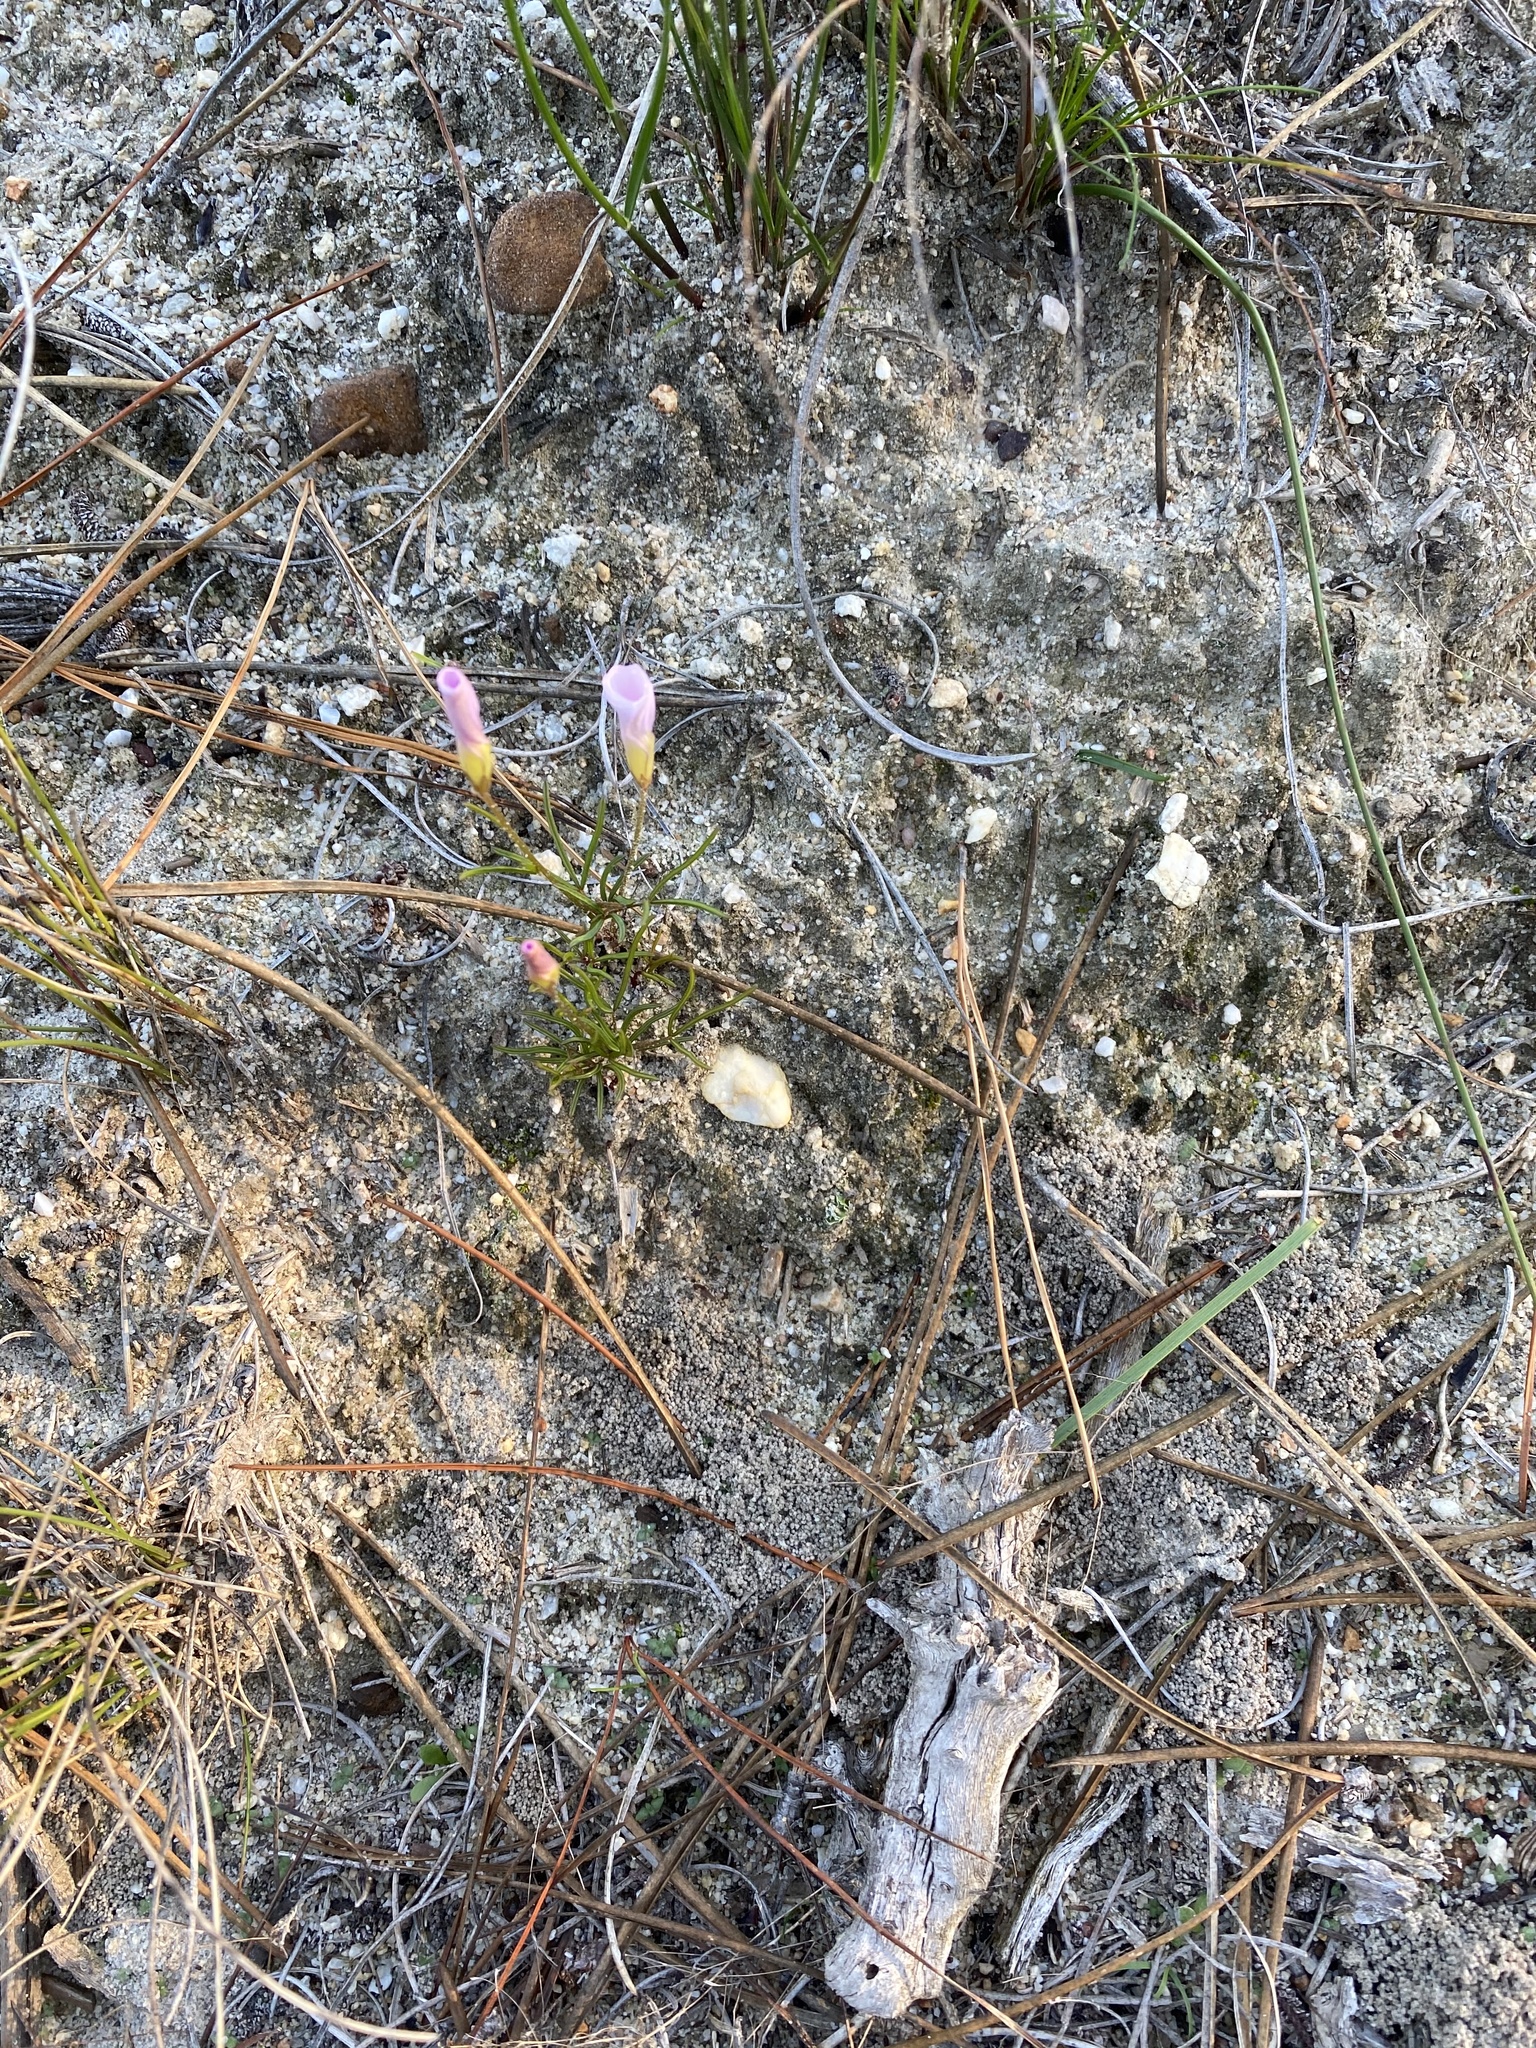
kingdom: Plantae
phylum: Tracheophyta
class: Magnoliopsida
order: Oxalidales
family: Oxalidaceae
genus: Oxalis
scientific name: Oxalis polyphylla
